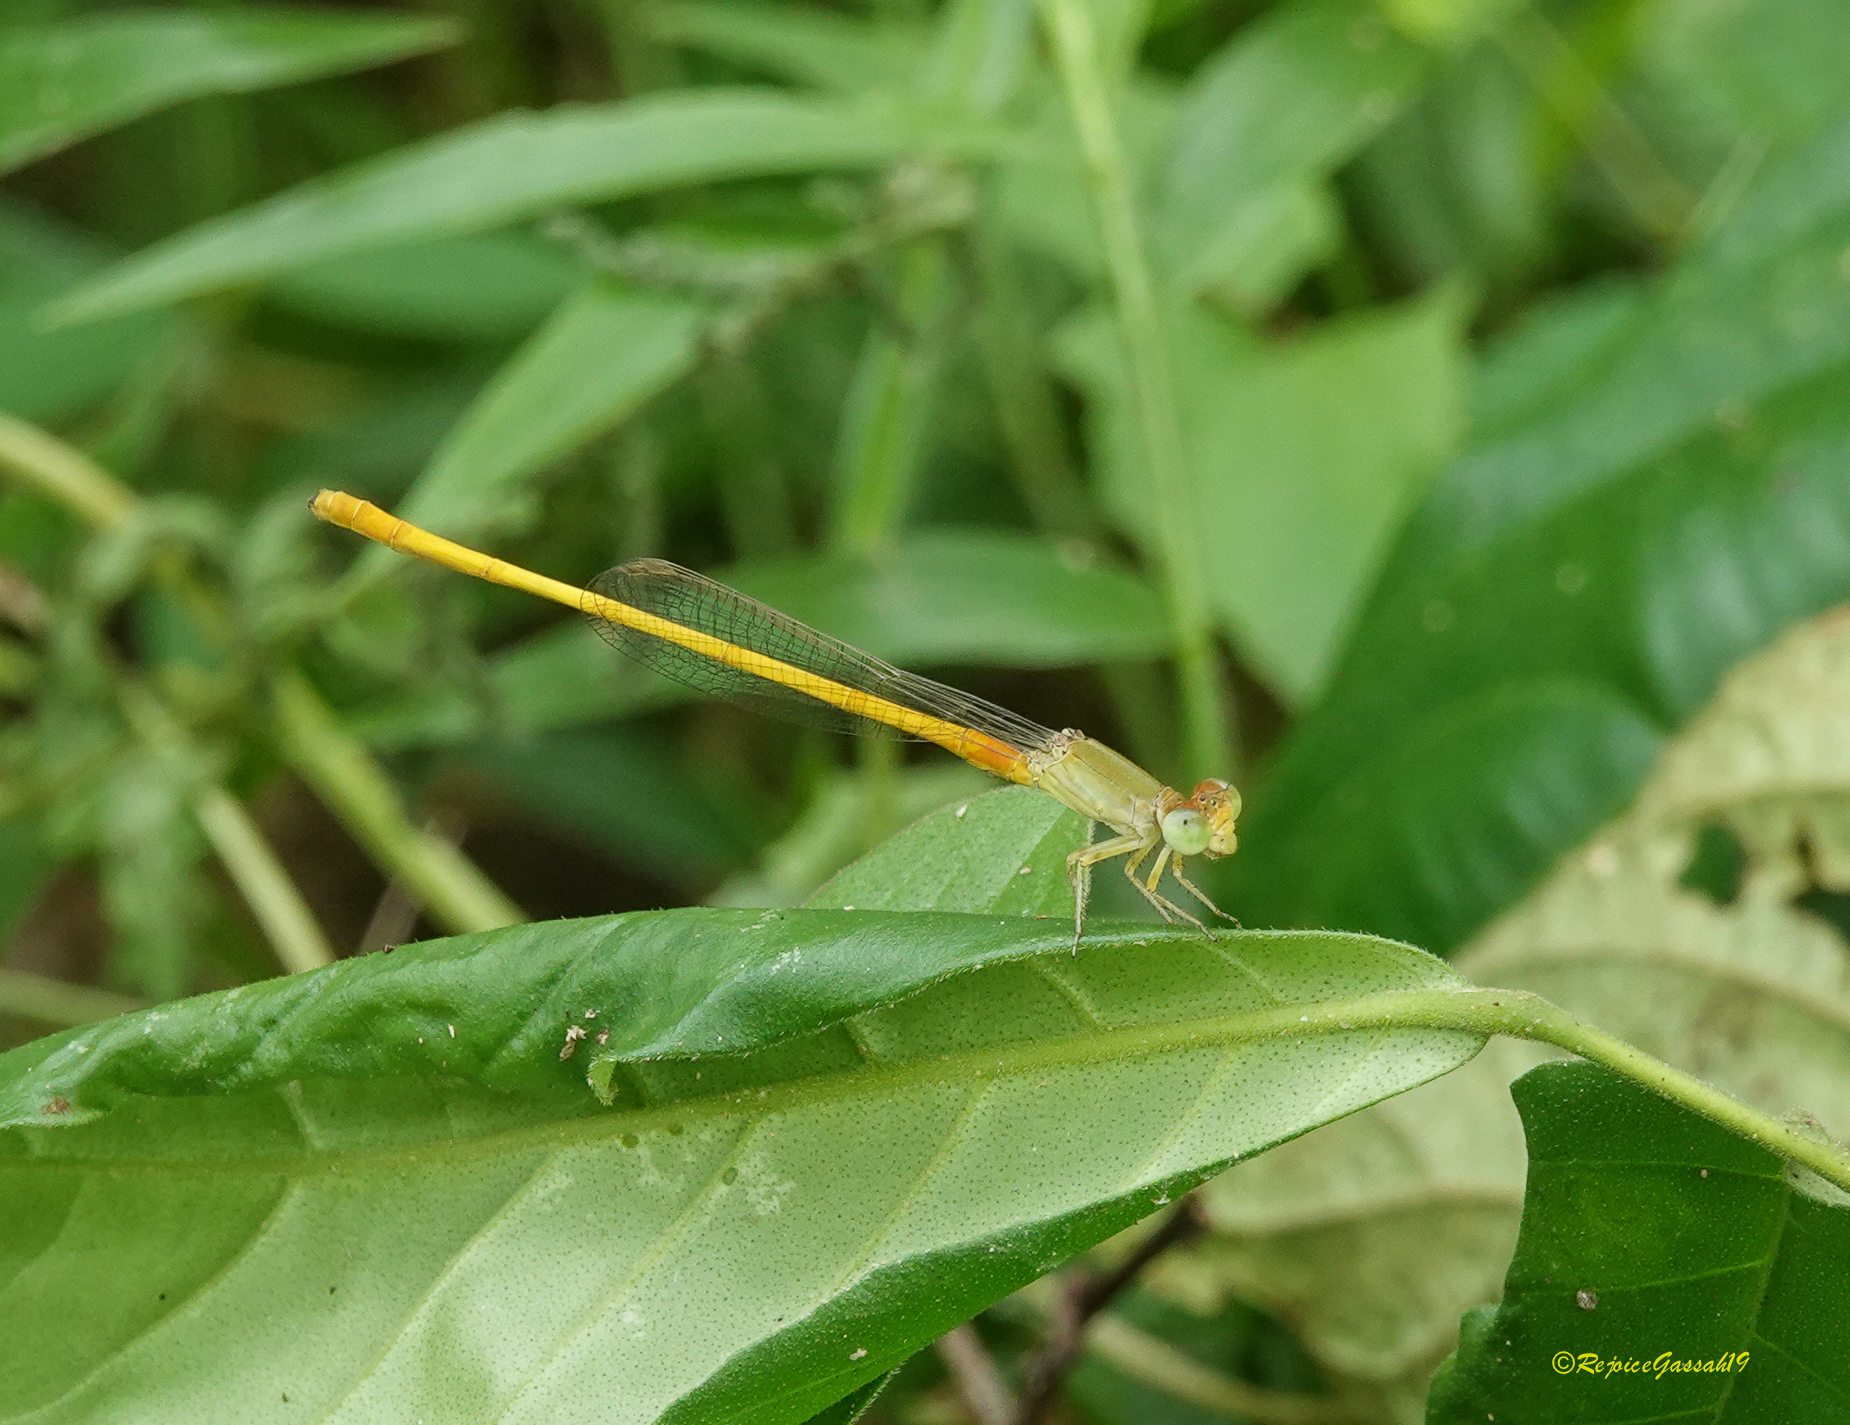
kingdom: Animalia
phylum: Arthropoda
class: Insecta
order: Odonata
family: Coenagrionidae
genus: Ceriagrion
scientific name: Ceriagrion coromandelianum
